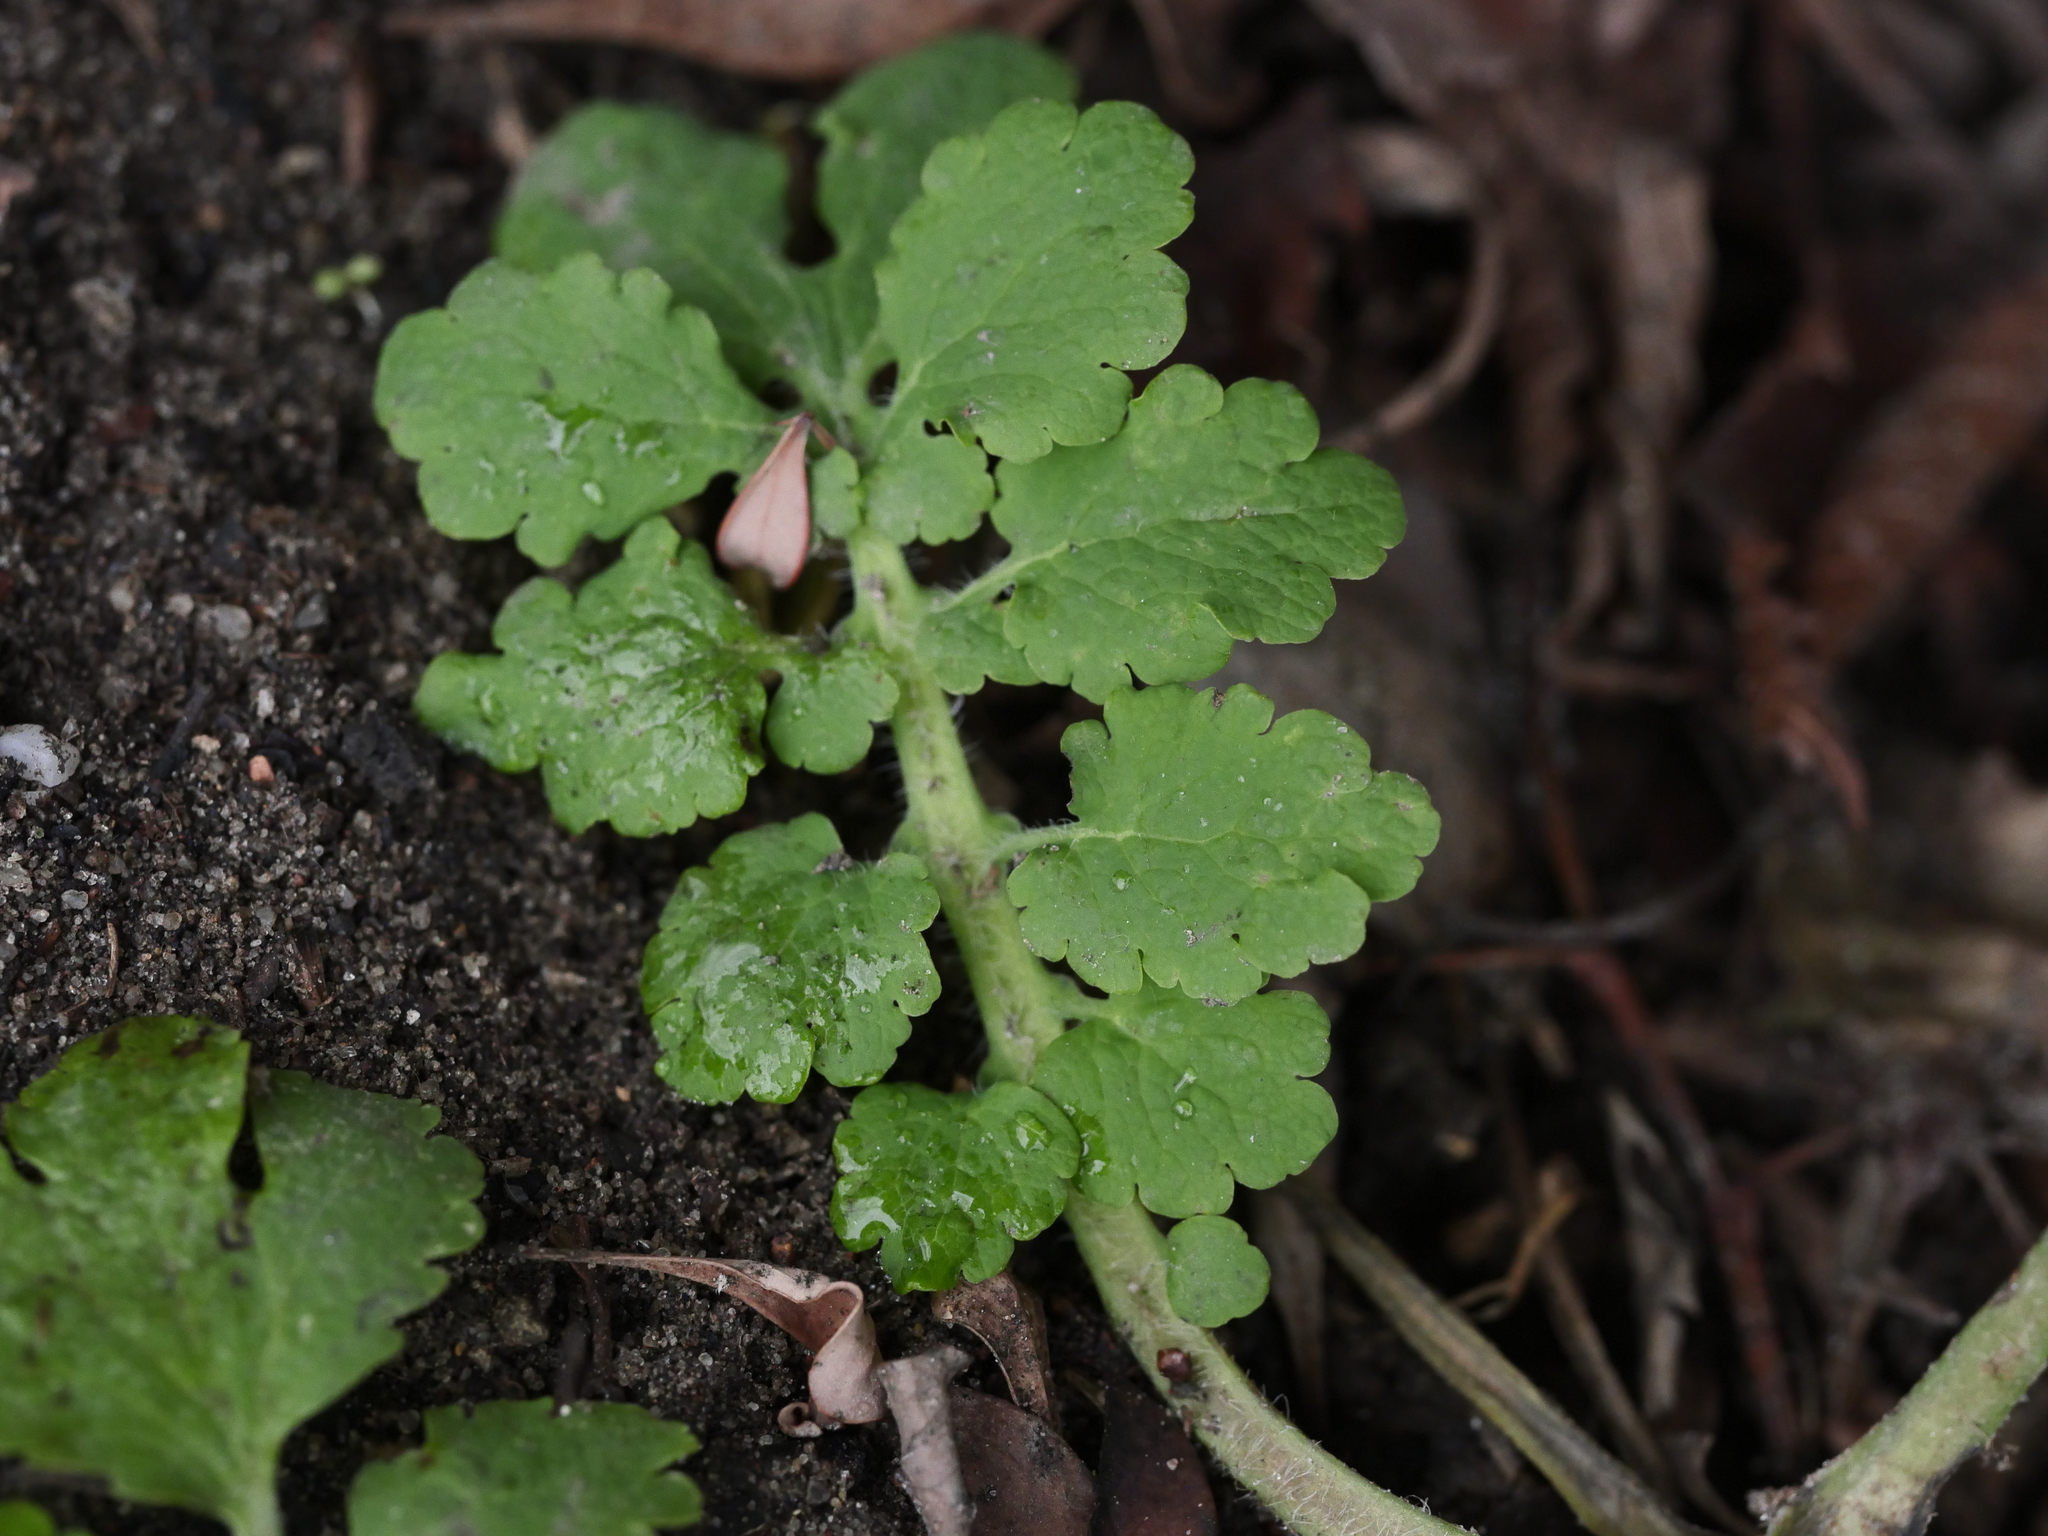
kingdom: Plantae
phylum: Tracheophyta
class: Magnoliopsida
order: Ranunculales
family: Papaveraceae
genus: Chelidonium
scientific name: Chelidonium majus
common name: Greater celandine
